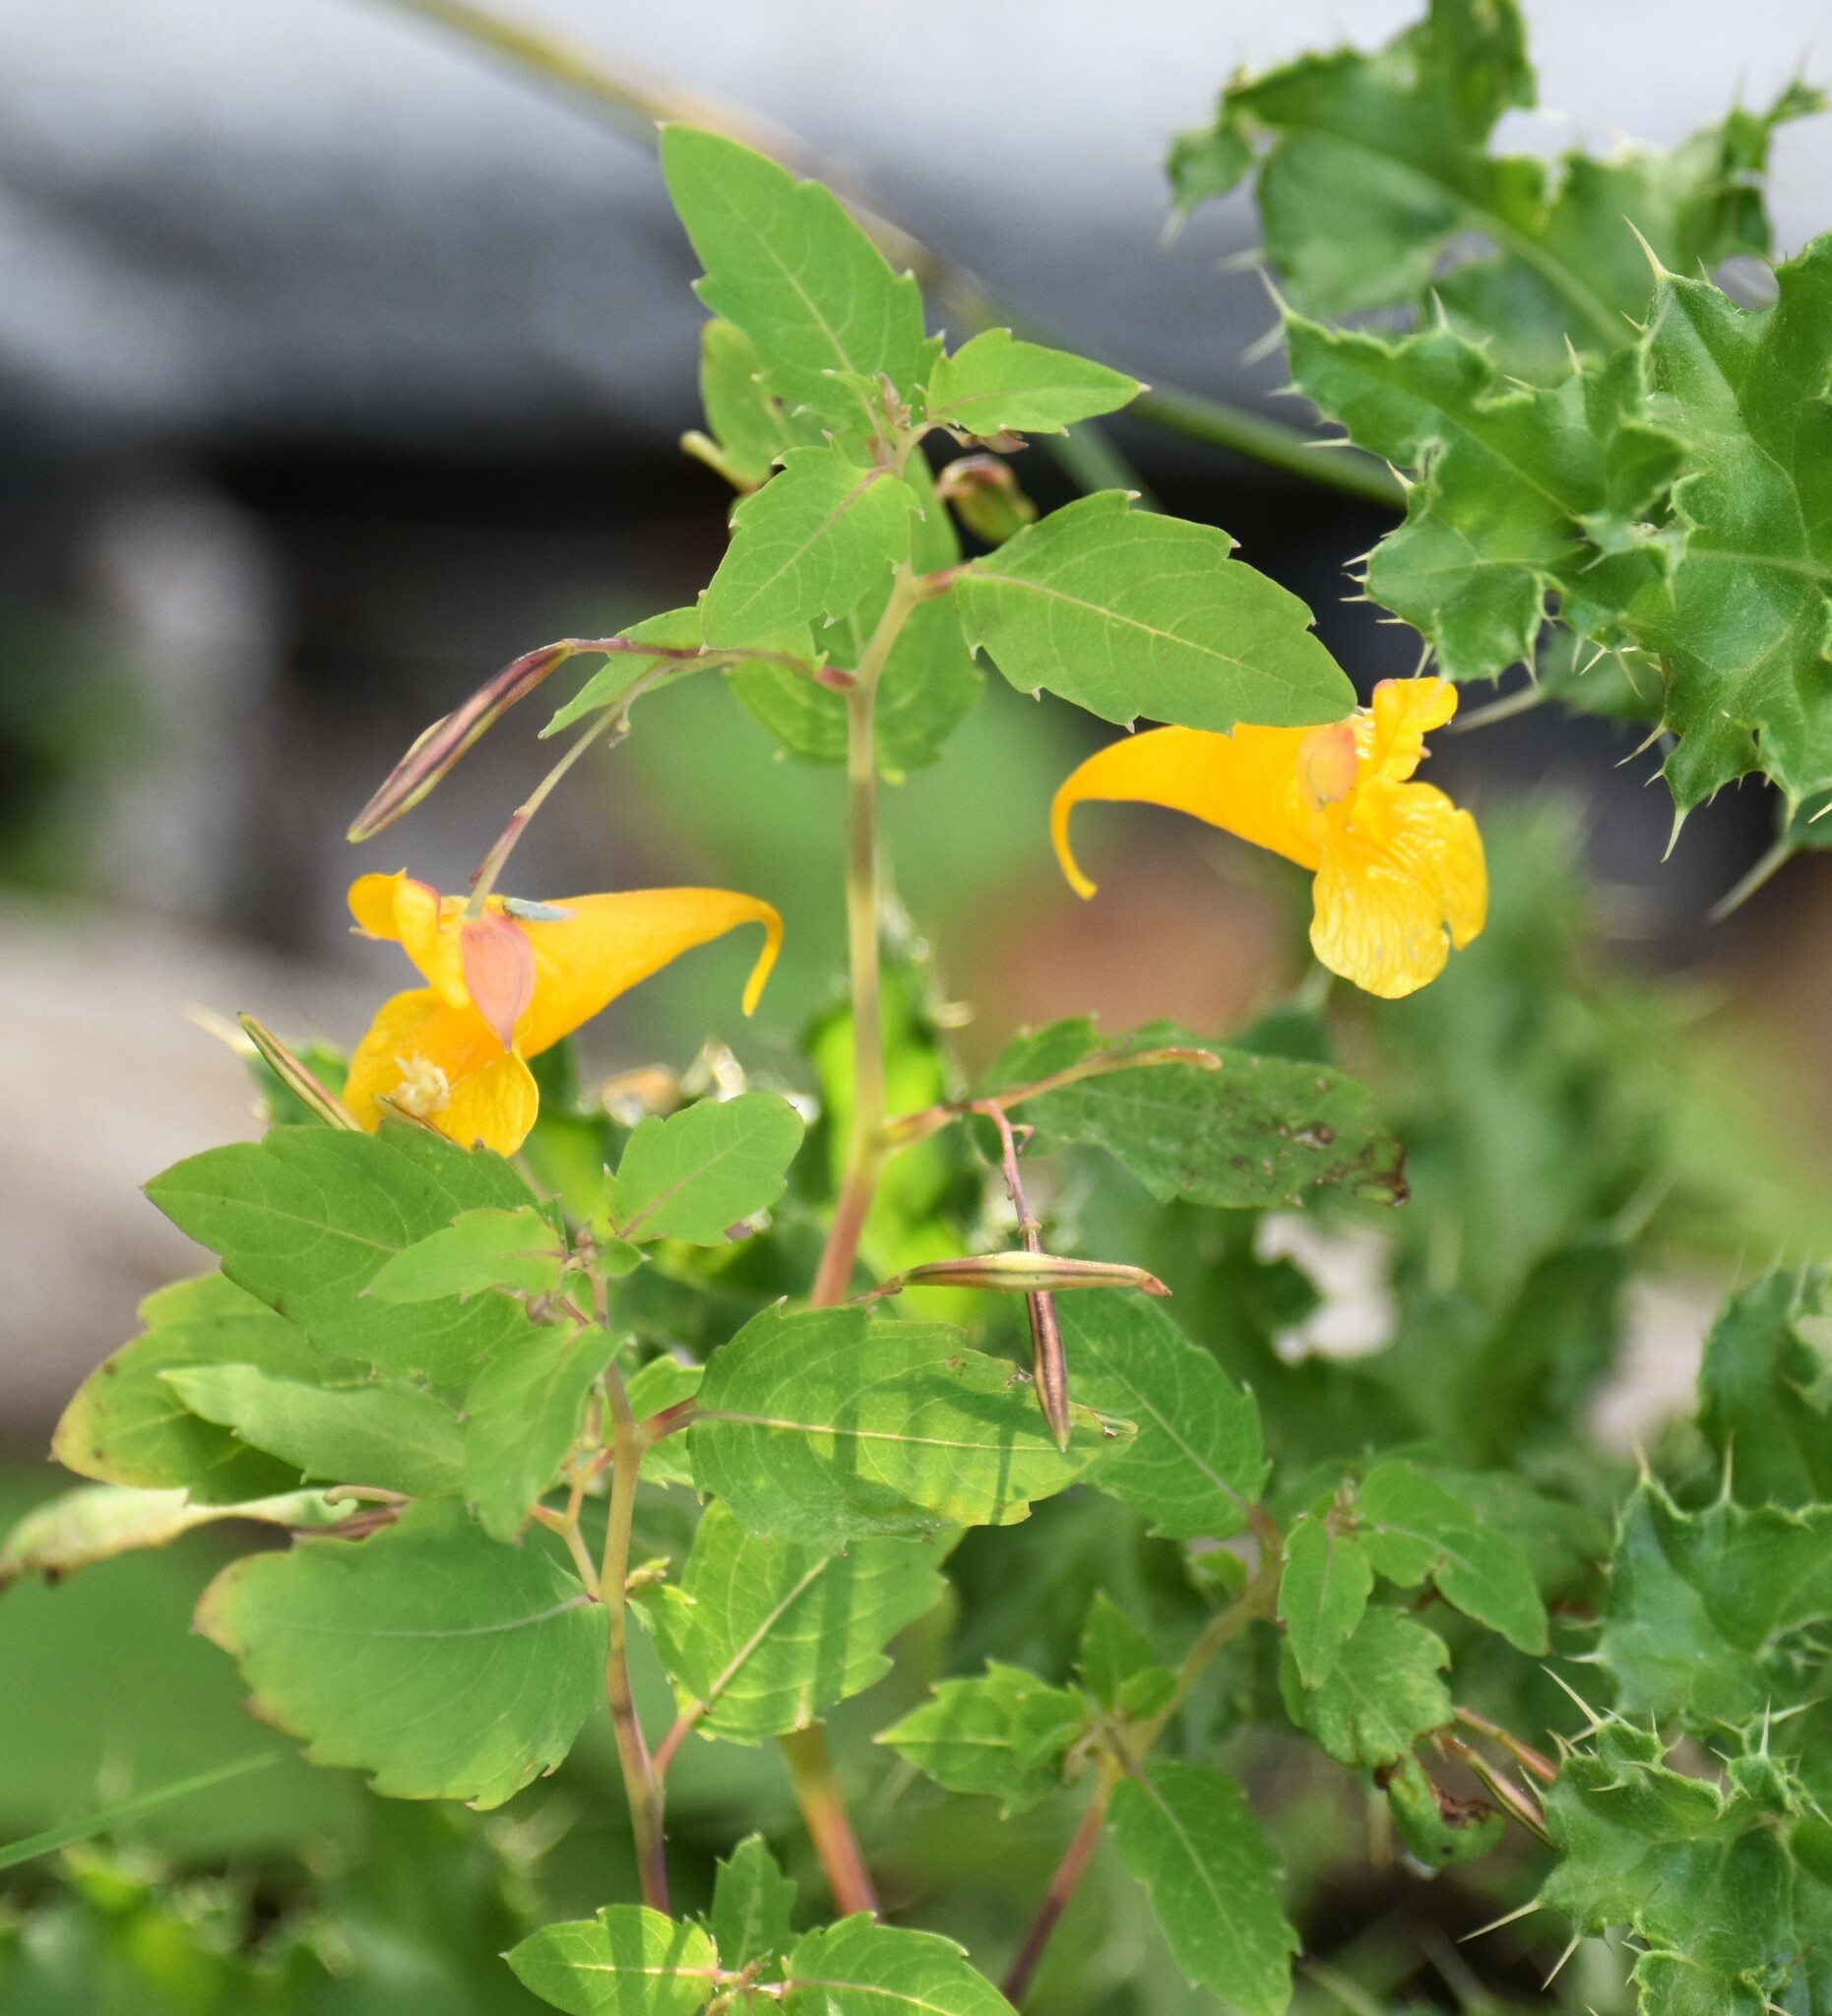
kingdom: Plantae
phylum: Tracheophyta
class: Magnoliopsida
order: Ericales
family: Balsaminaceae
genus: Impatiens
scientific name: Impatiens noli-tangere
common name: Touch-me-not balsam
